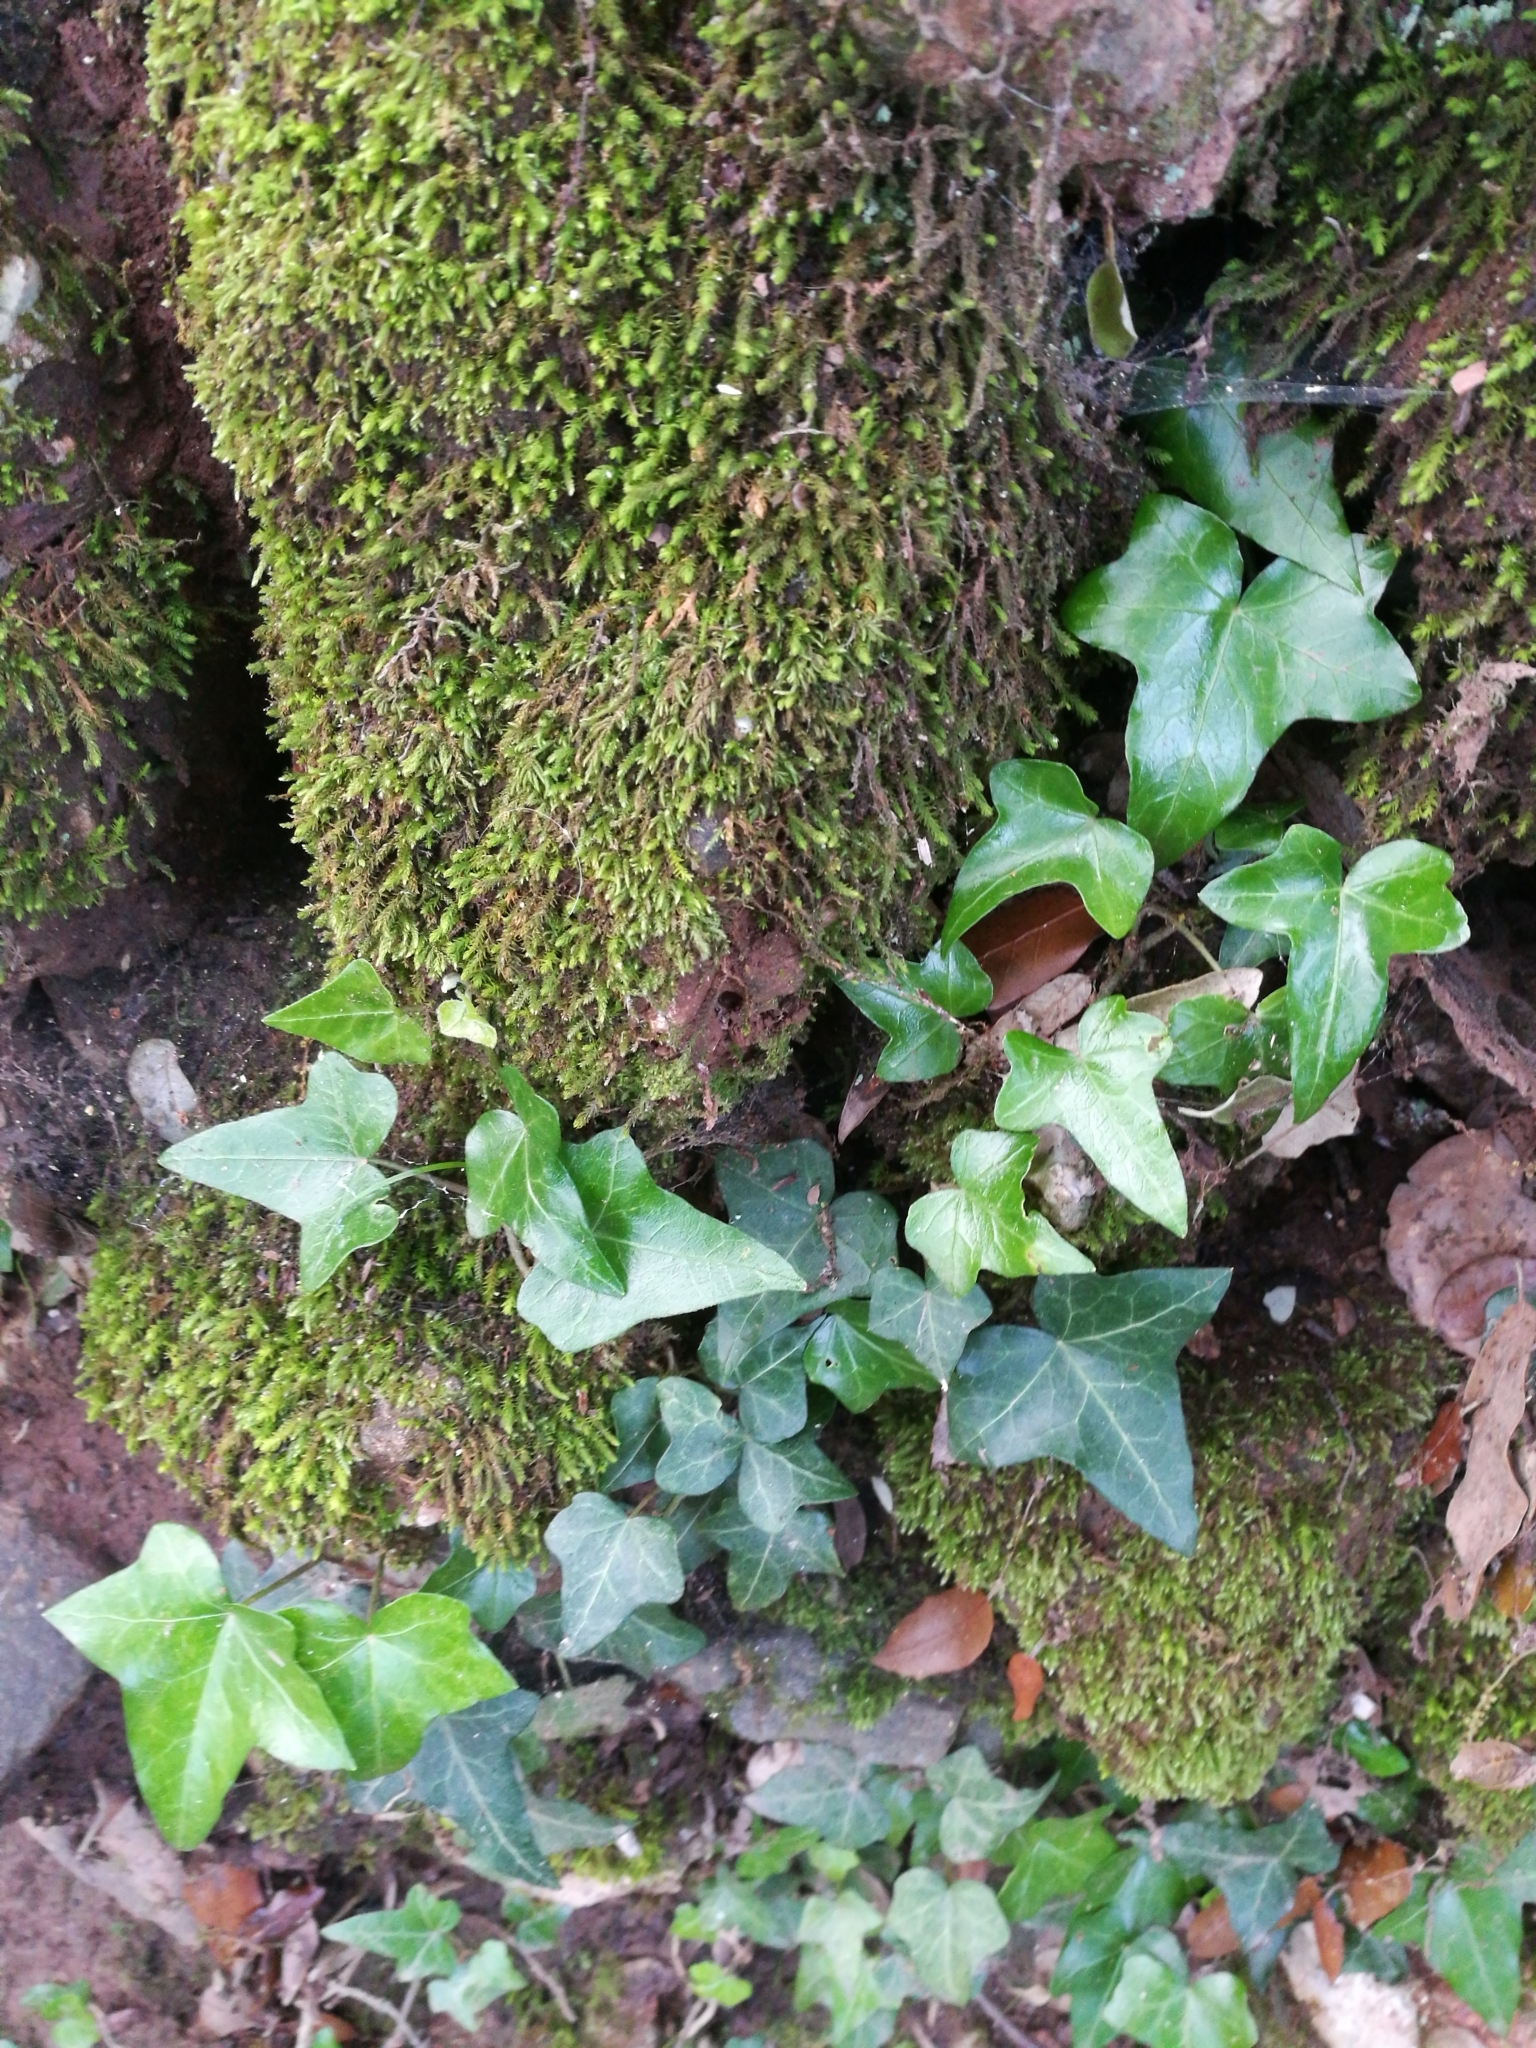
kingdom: Plantae
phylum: Tracheophyta
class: Magnoliopsida
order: Apiales
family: Araliaceae
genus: Hedera
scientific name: Hedera helix
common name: Ivy
